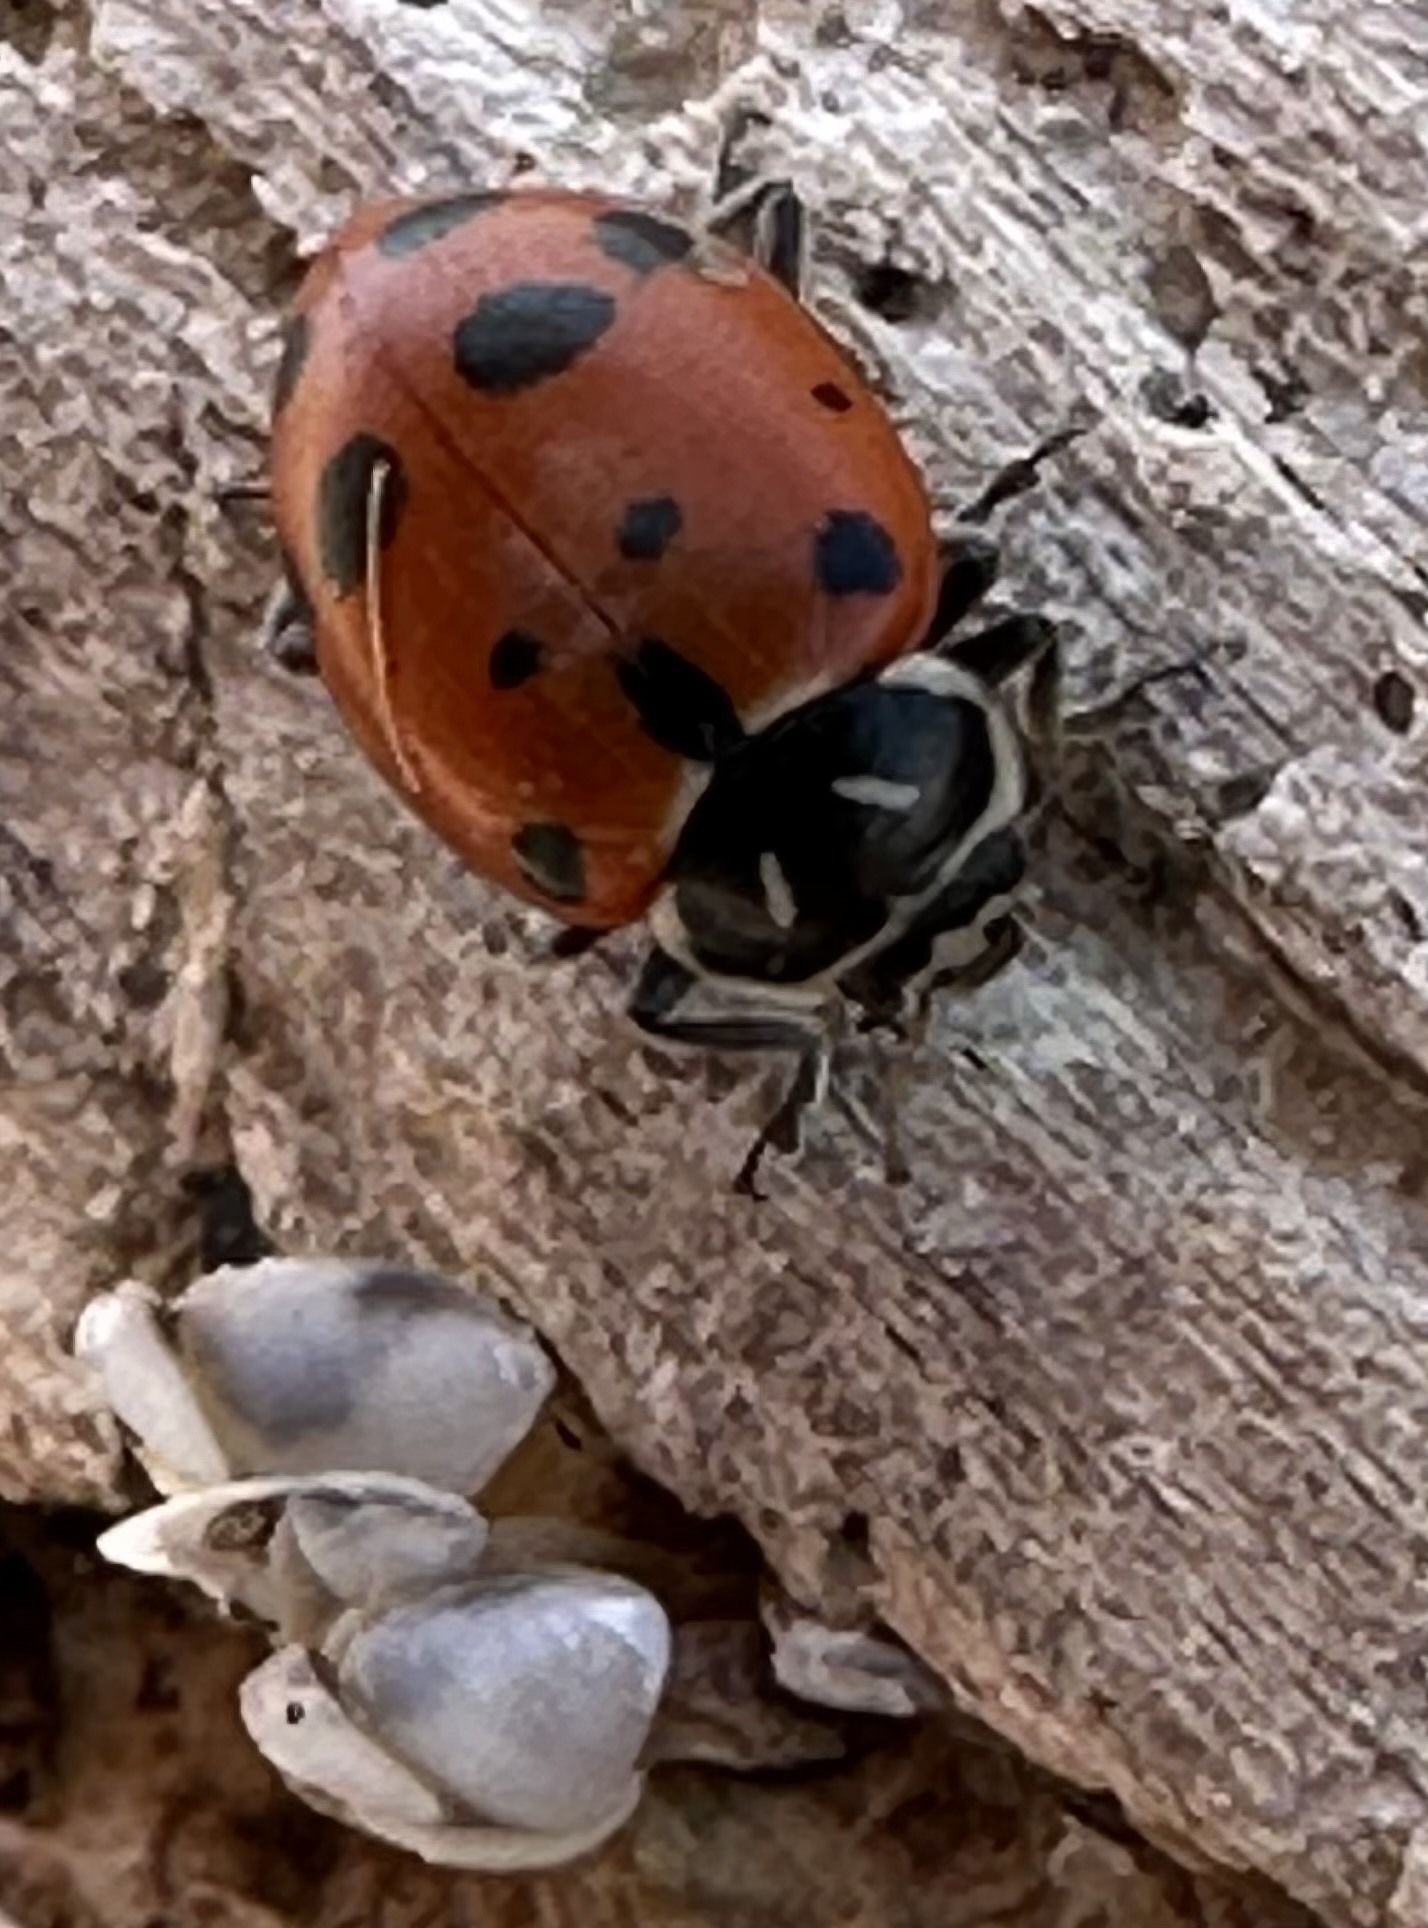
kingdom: Animalia
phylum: Arthropoda
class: Insecta
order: Coleoptera
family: Coccinellidae
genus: Hippodamia
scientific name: Hippodamia convergens
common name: Convergent lady beetle
